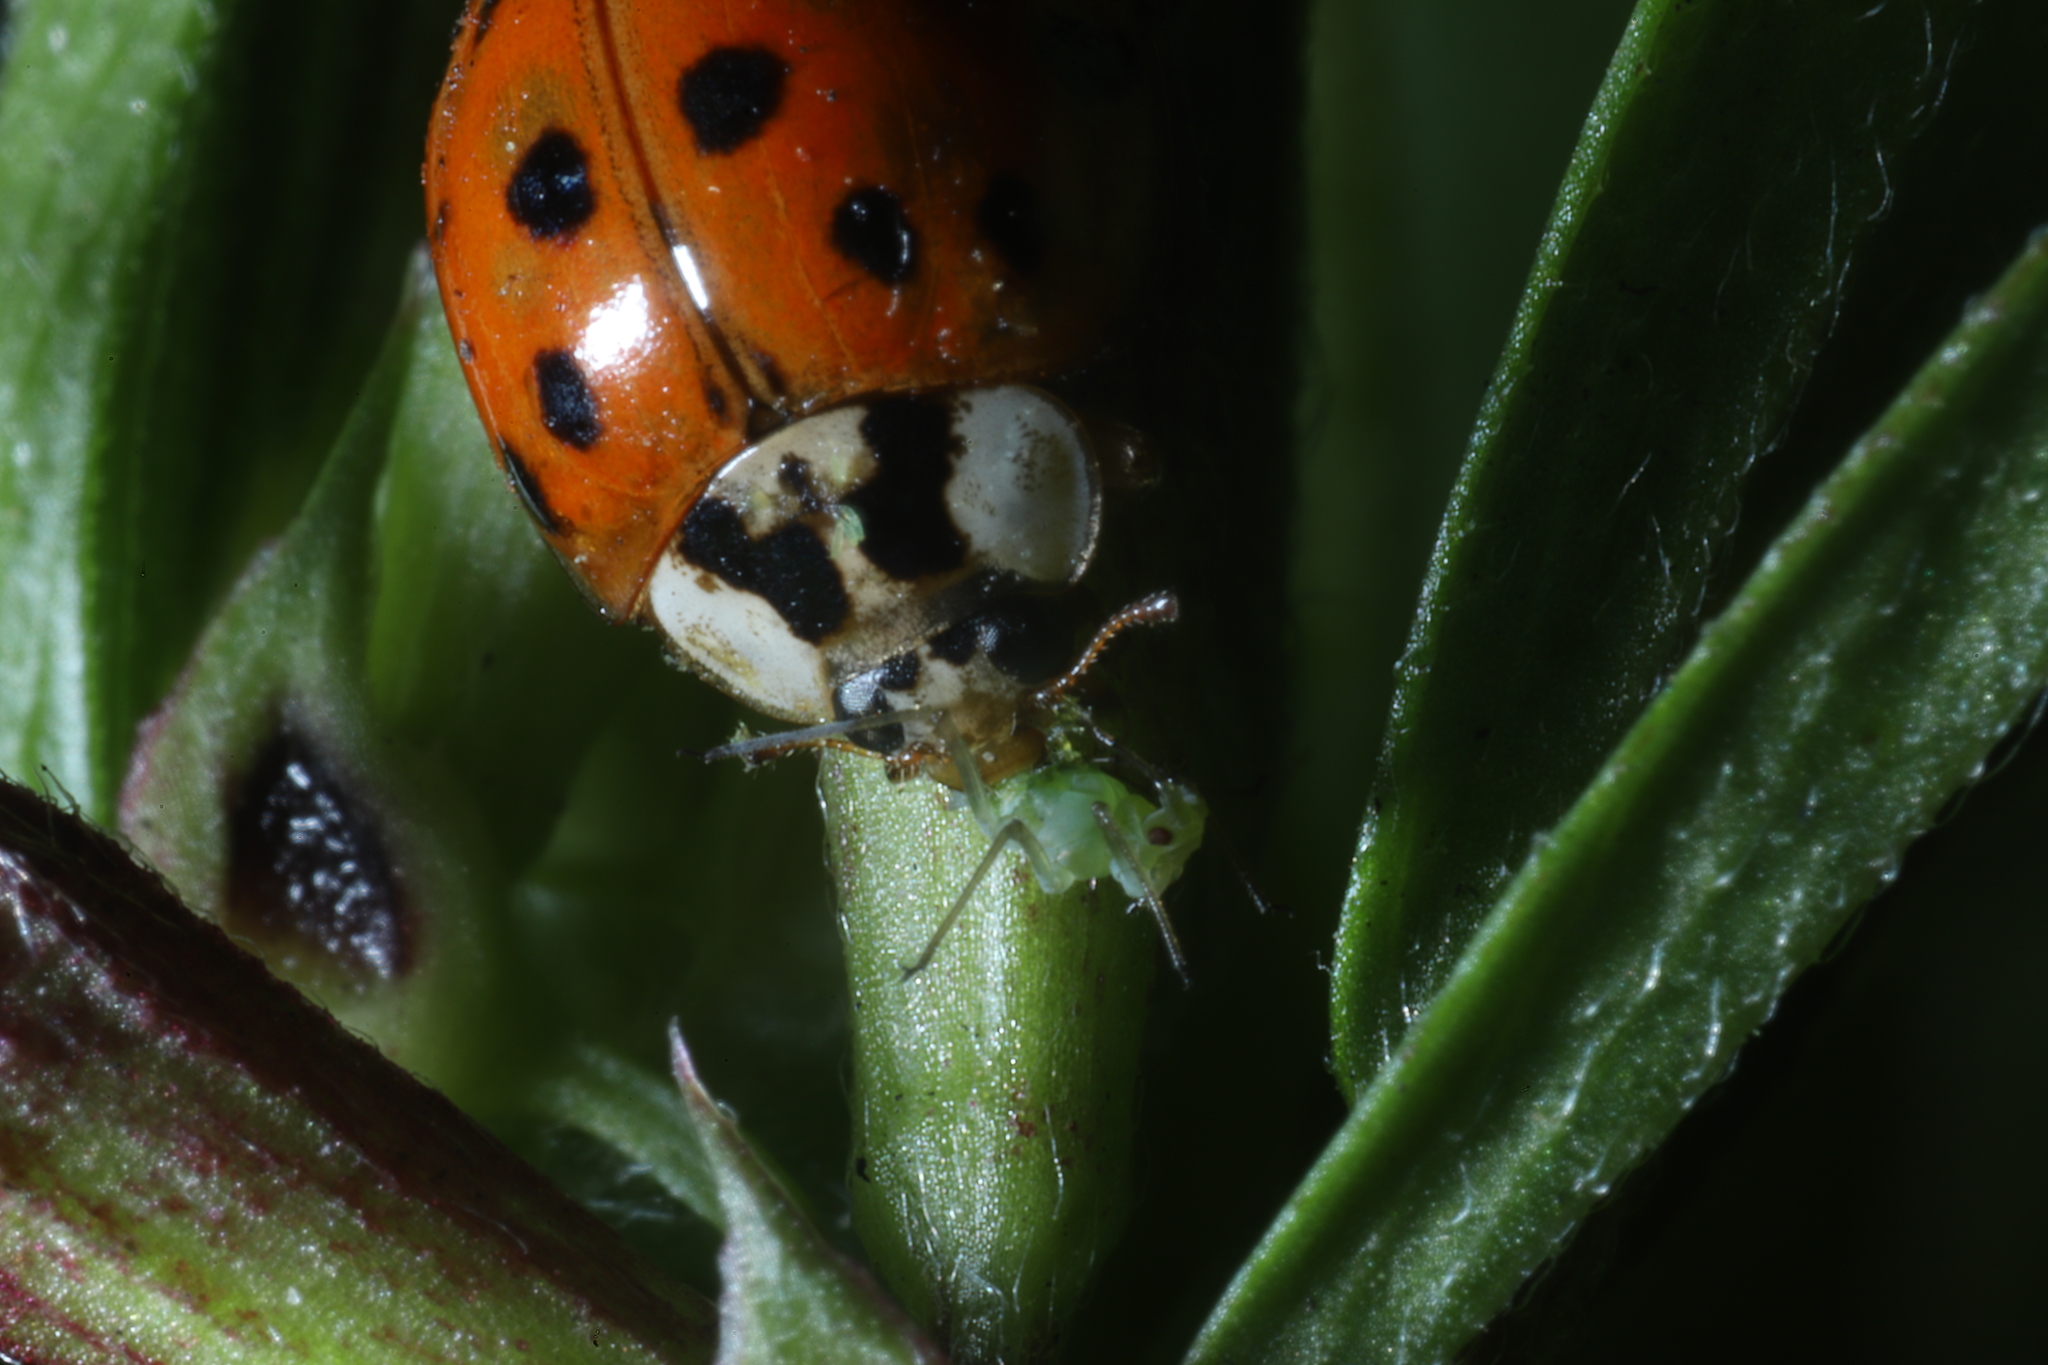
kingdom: Animalia
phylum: Arthropoda
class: Insecta
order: Coleoptera
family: Coccinellidae
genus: Harmonia
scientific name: Harmonia axyridis
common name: Harlequin ladybird
